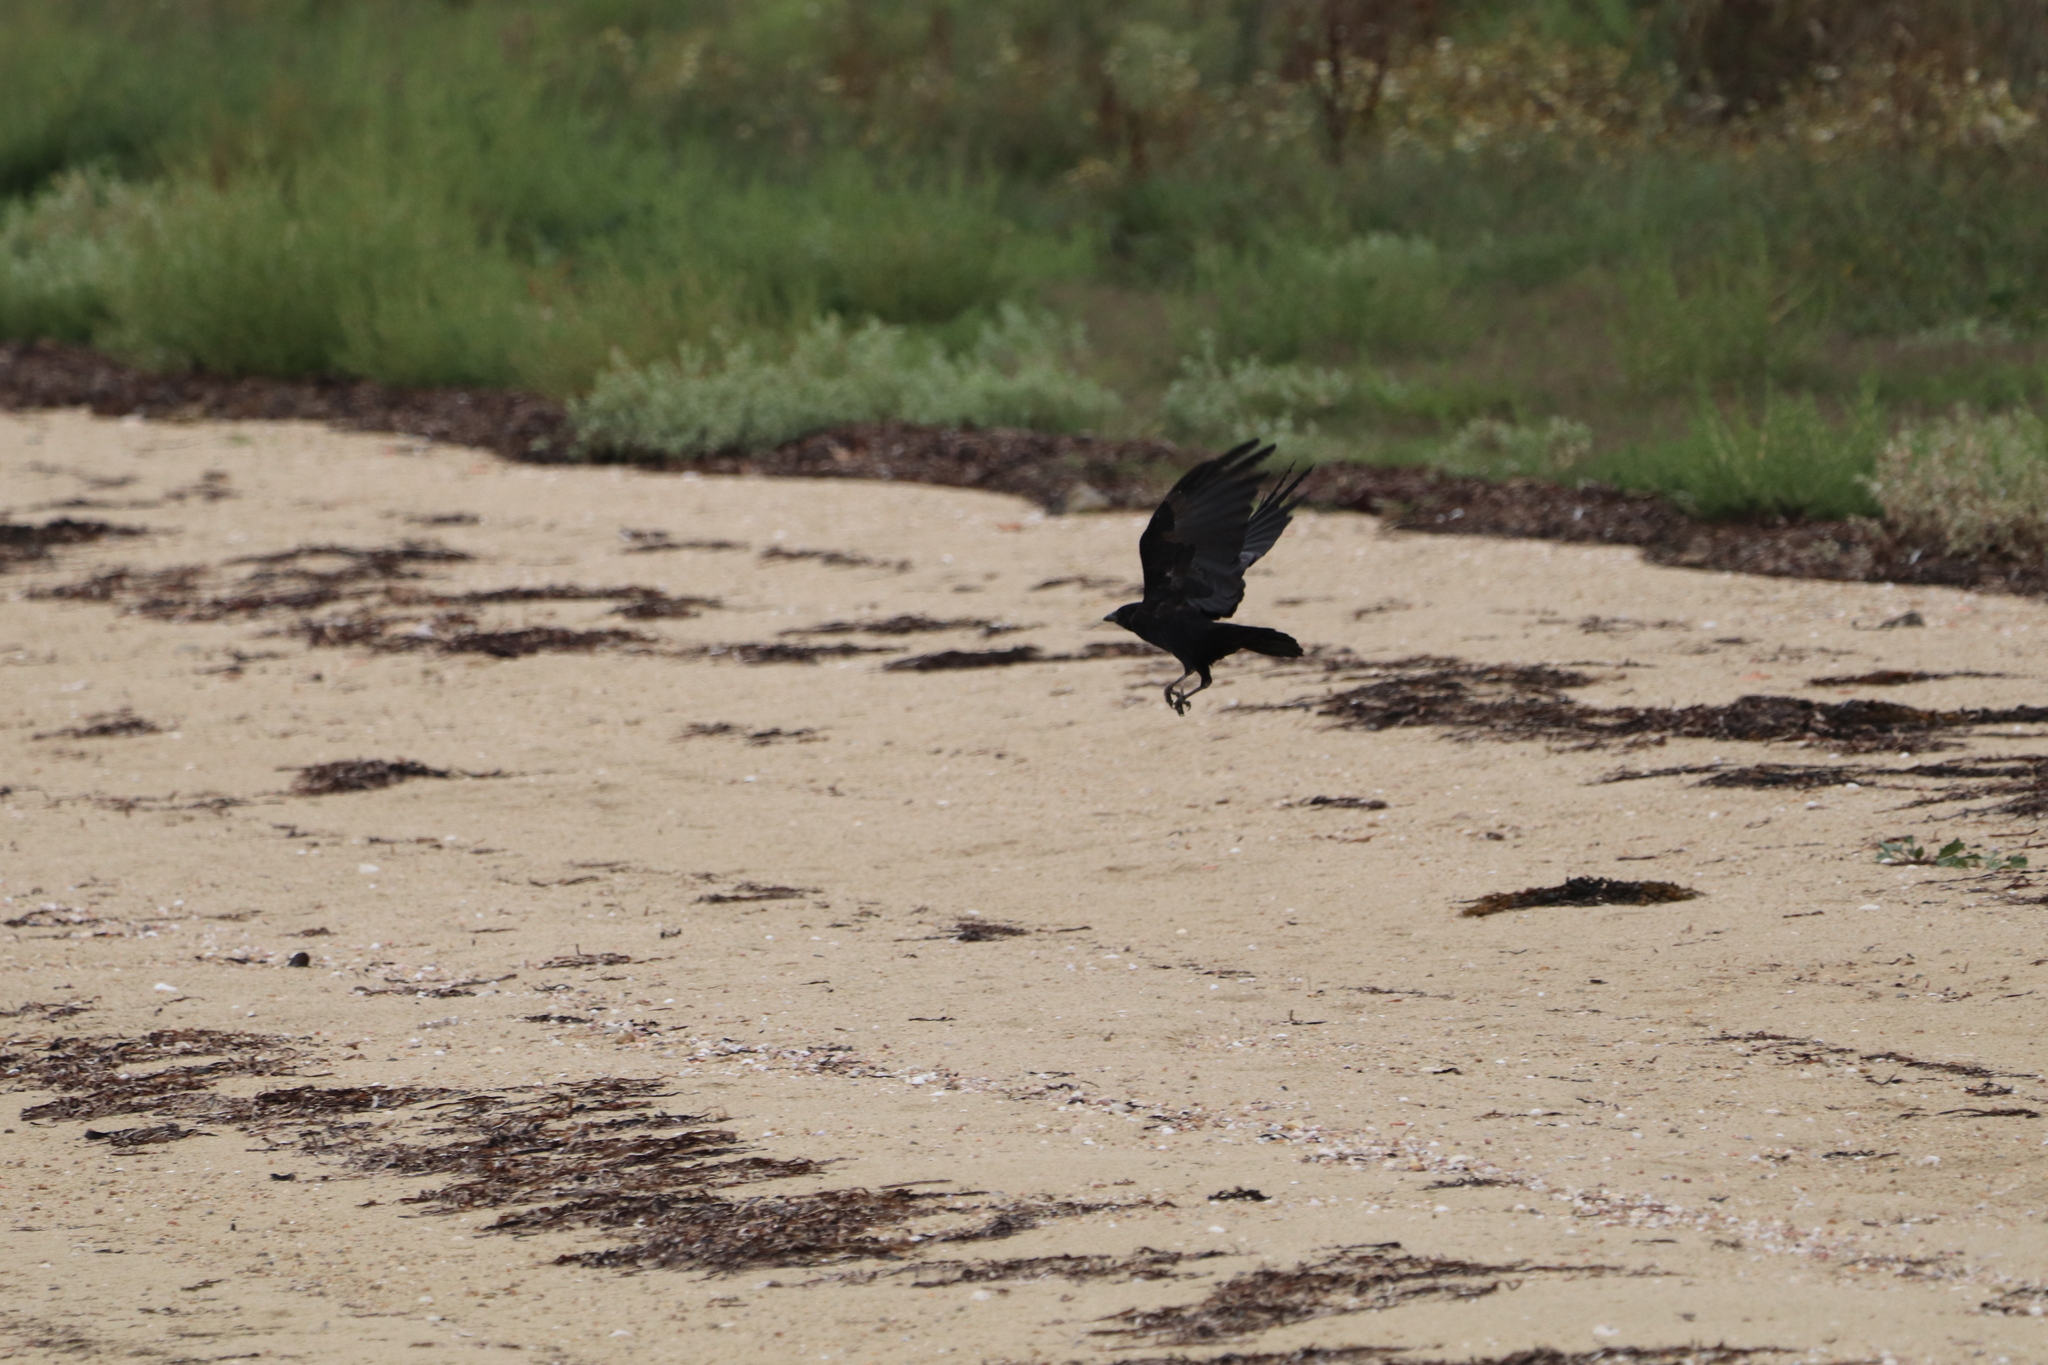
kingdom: Animalia
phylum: Chordata
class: Aves
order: Passeriformes
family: Corvidae
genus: Corvus
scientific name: Corvus corone
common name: Carrion crow
